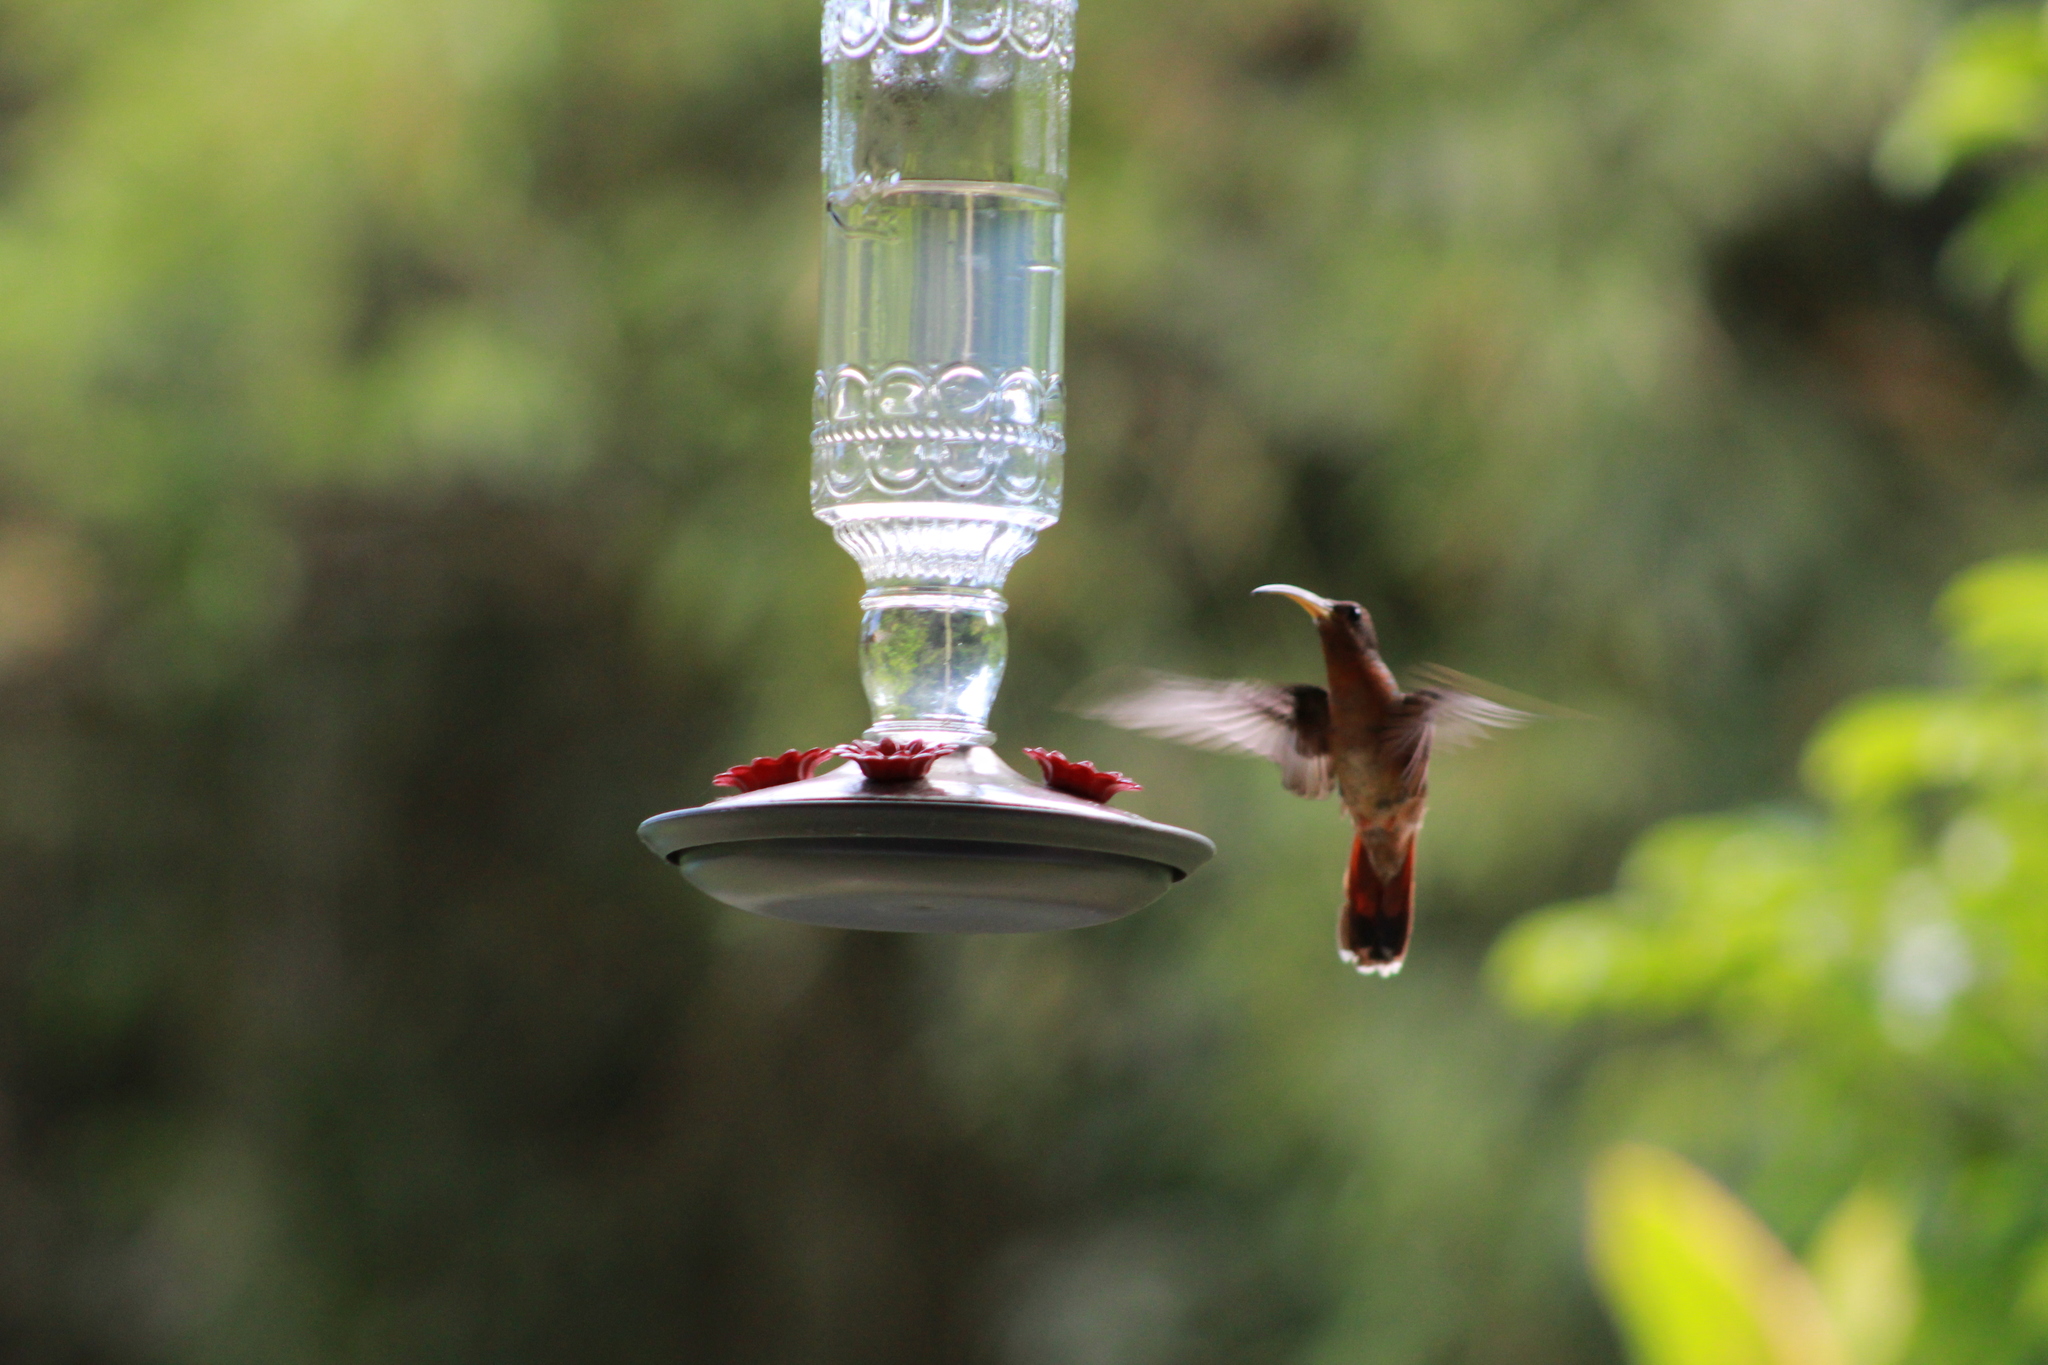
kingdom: Animalia
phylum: Chordata
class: Aves
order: Apodiformes
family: Trochilidae
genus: Glaucis
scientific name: Glaucis hirsutus
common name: Rufous-breasted hermit
